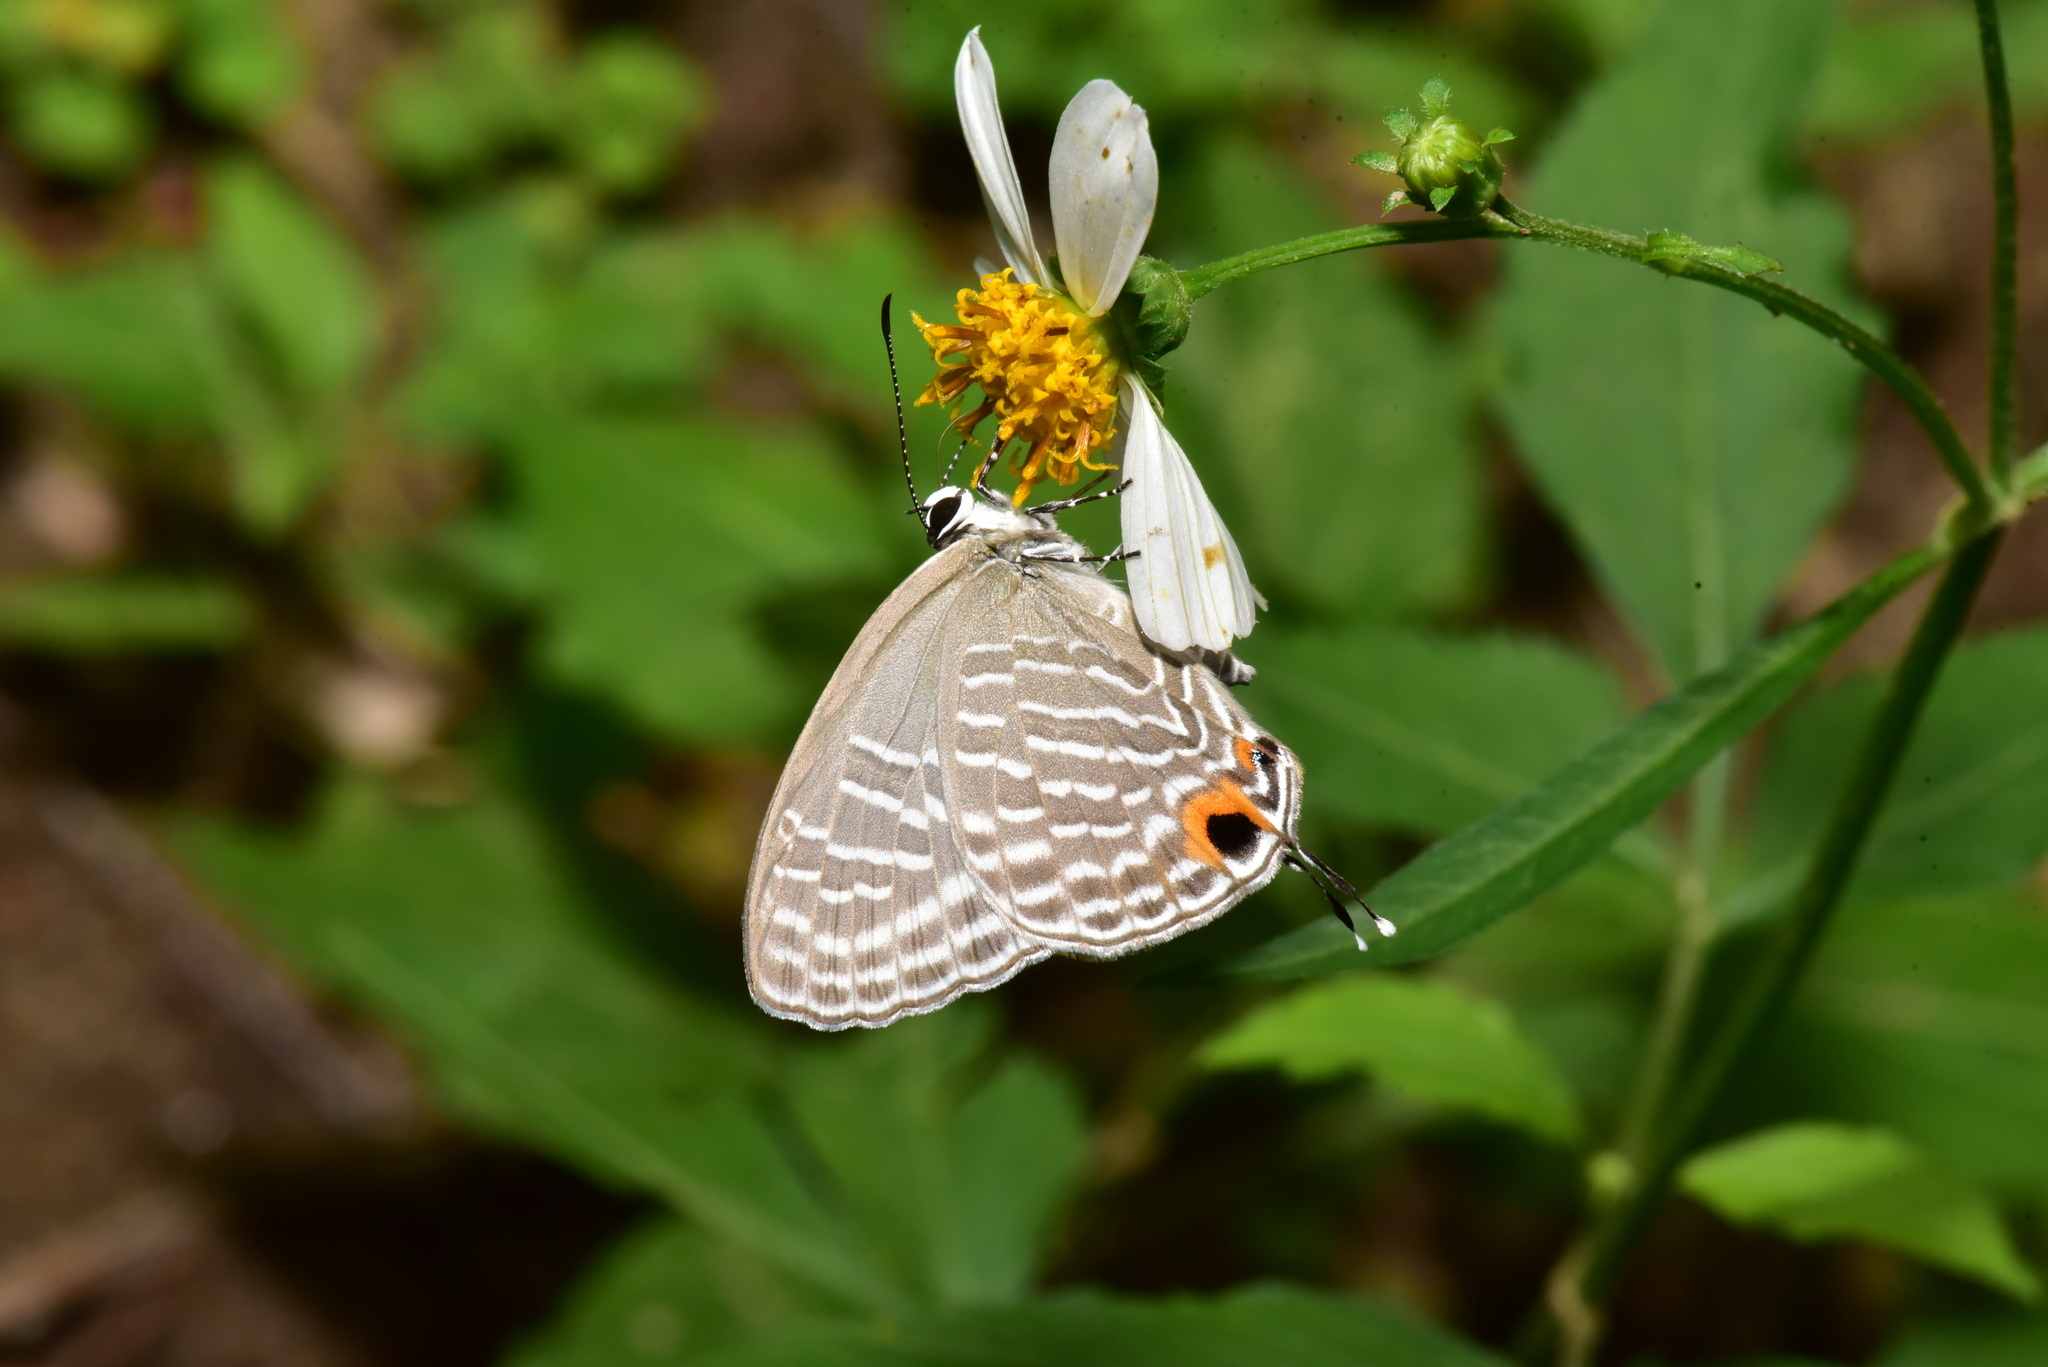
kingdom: Animalia
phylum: Arthropoda
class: Insecta
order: Lepidoptera
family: Lycaenidae
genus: Jamides
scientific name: Jamides alecto
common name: Metallic cerulean
